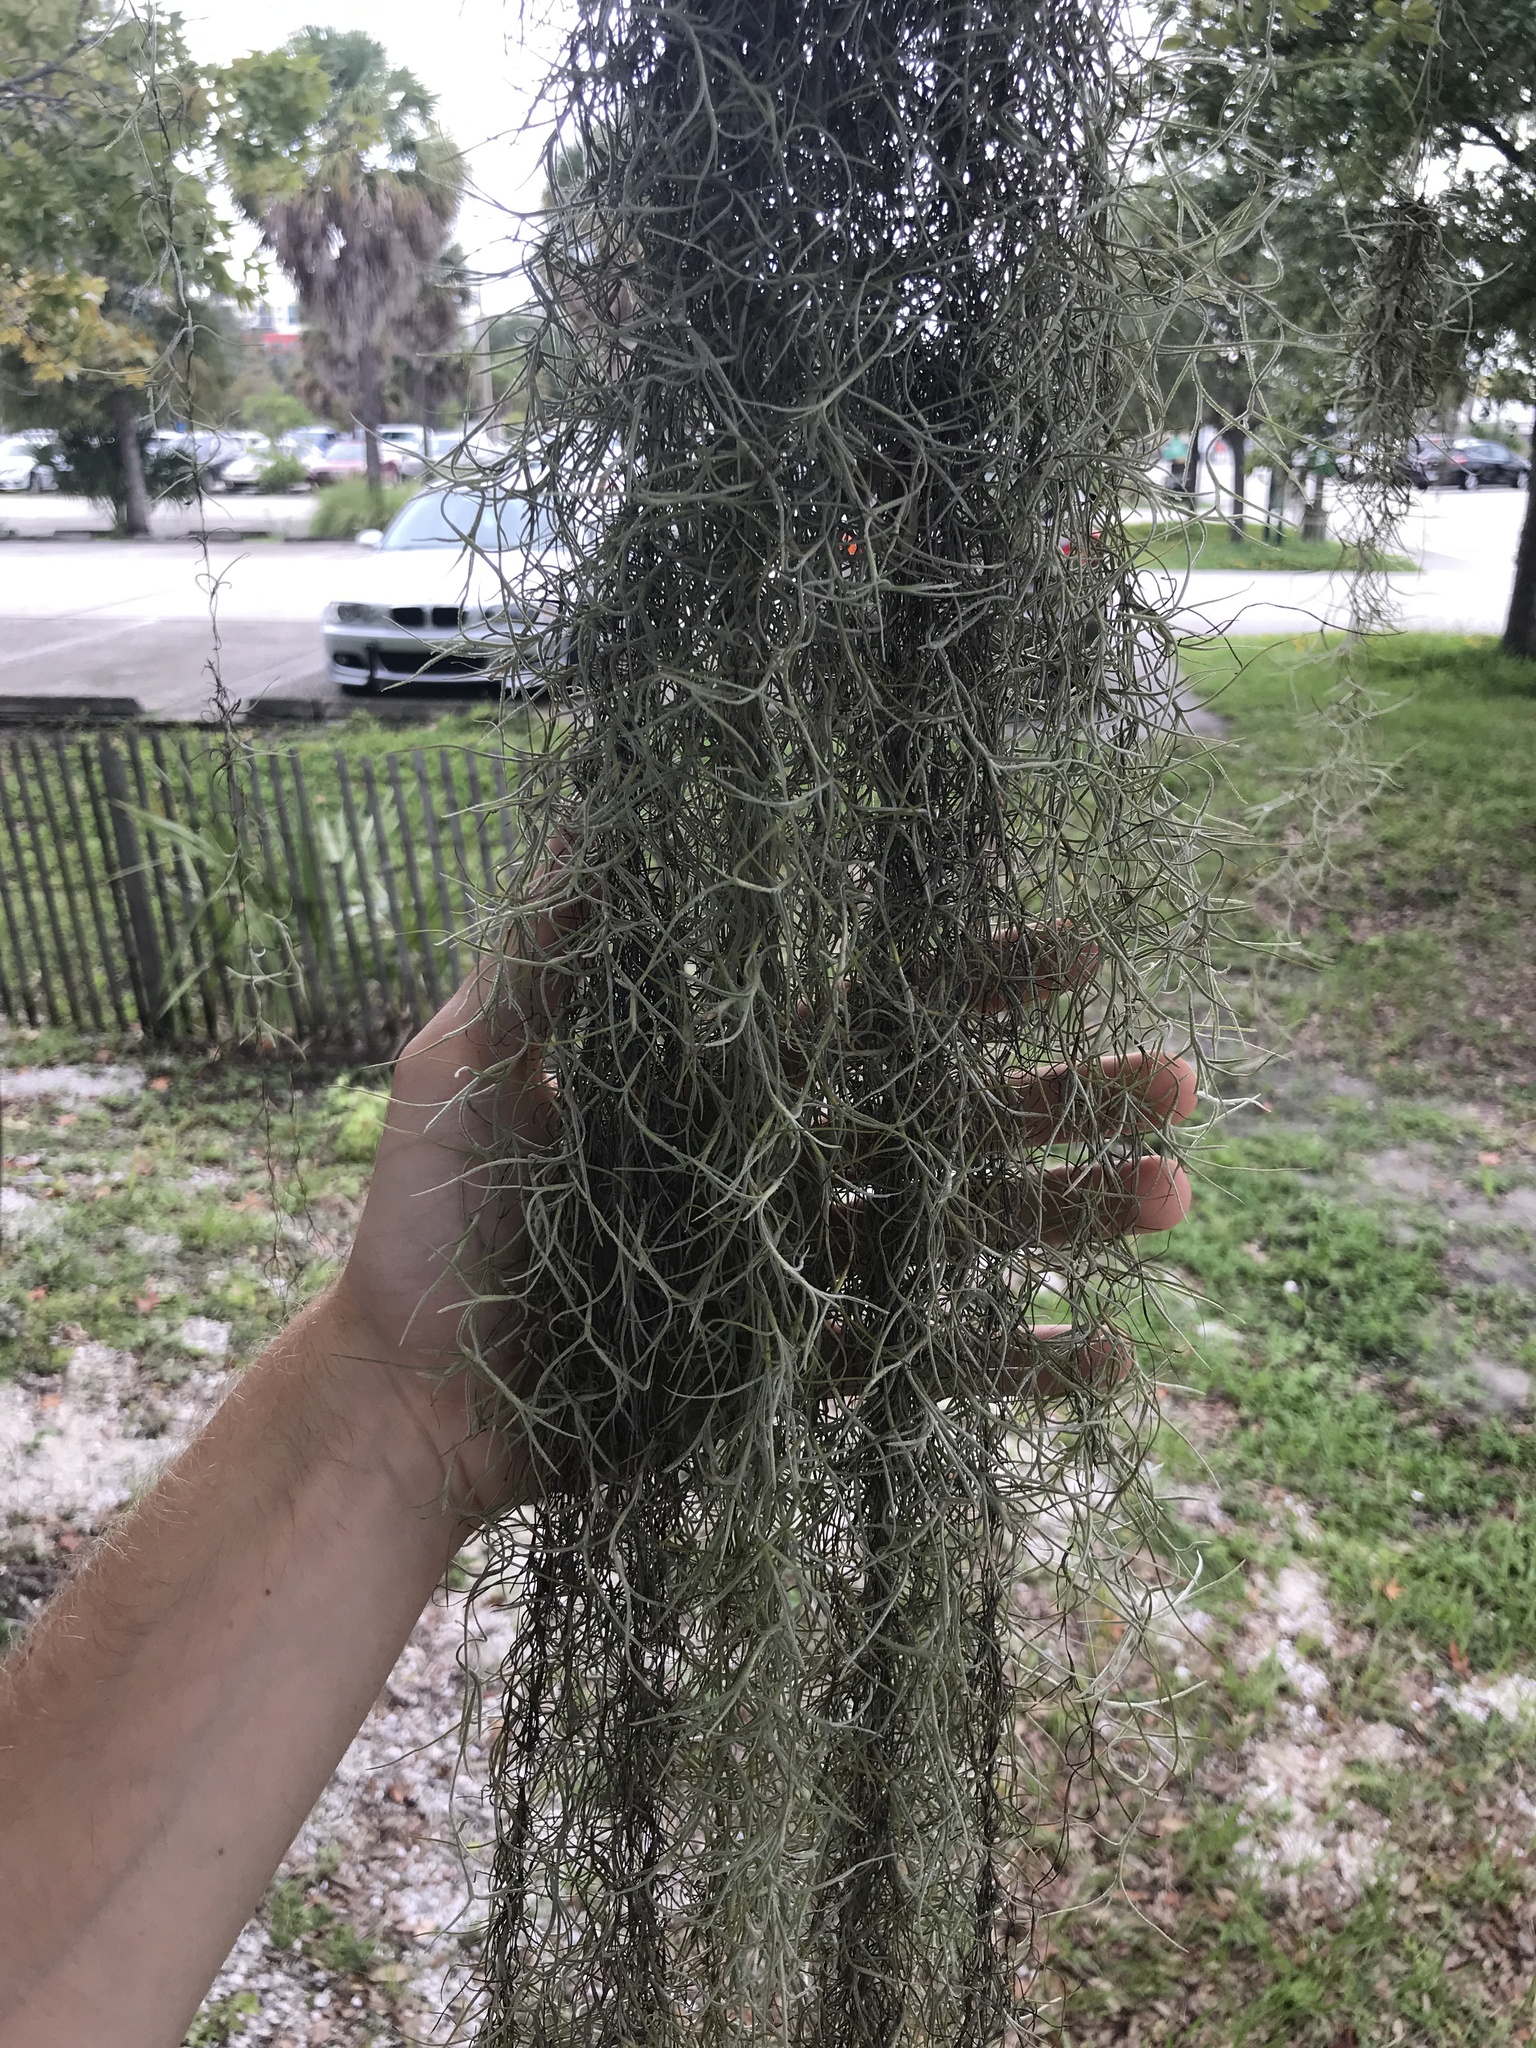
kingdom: Plantae
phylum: Tracheophyta
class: Liliopsida
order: Poales
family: Bromeliaceae
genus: Tillandsia
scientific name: Tillandsia usneoides
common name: Spanish moss
